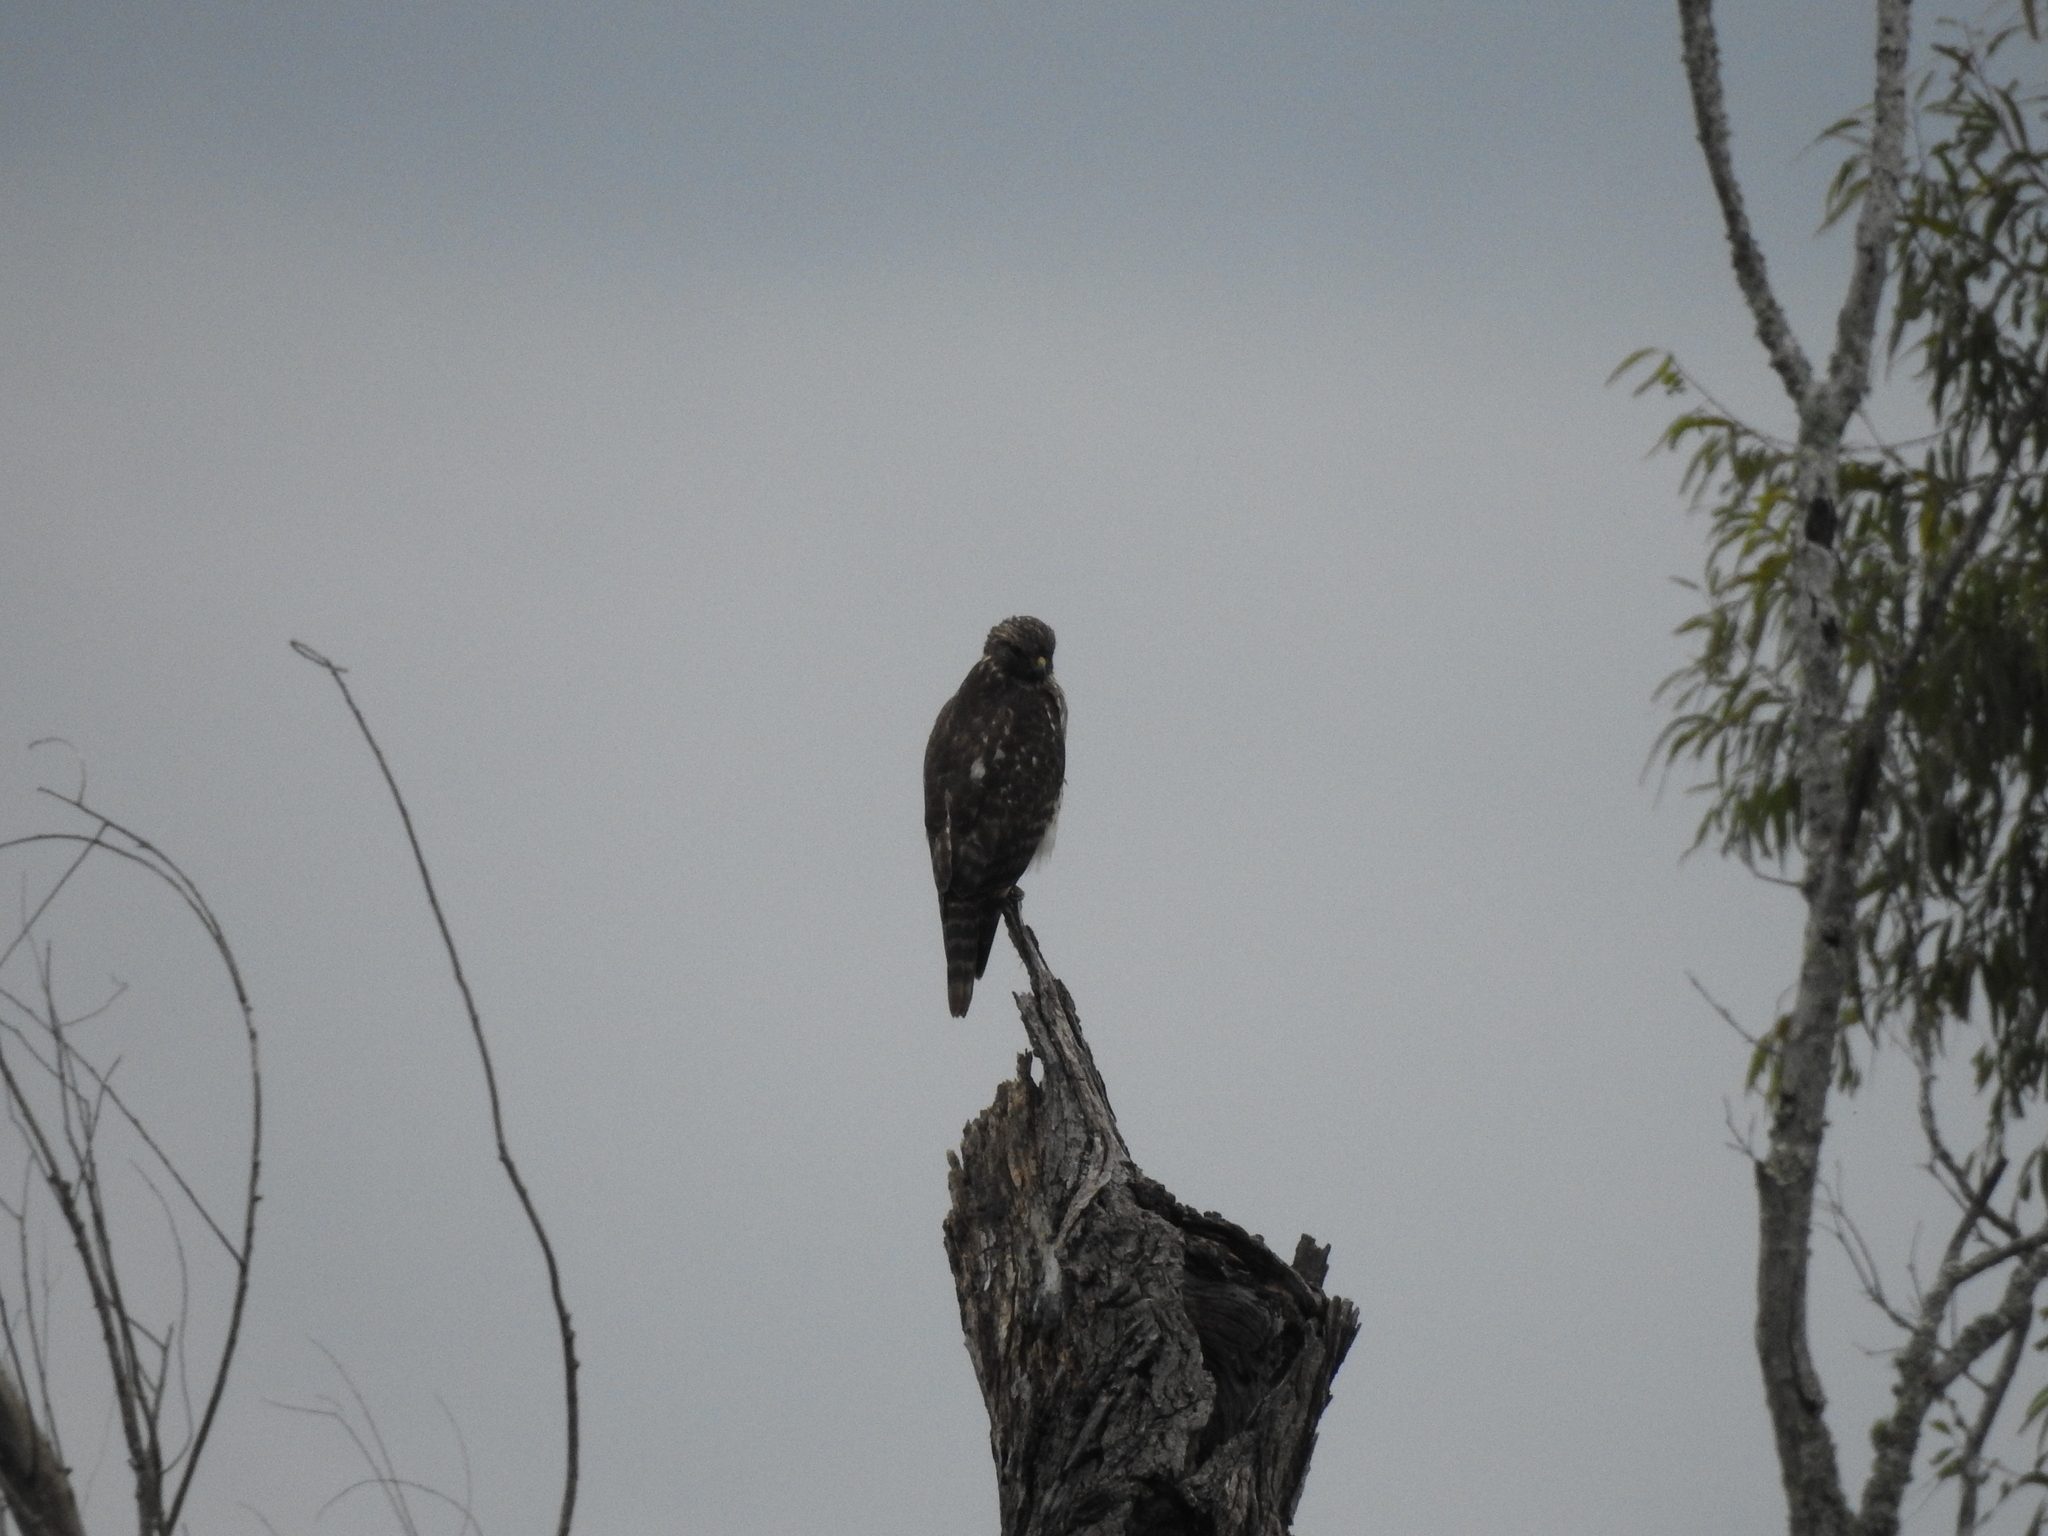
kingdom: Animalia
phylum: Chordata
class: Aves
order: Accipitriformes
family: Accipitridae
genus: Buteo
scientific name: Buteo lineatus
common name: Red-shouldered hawk
